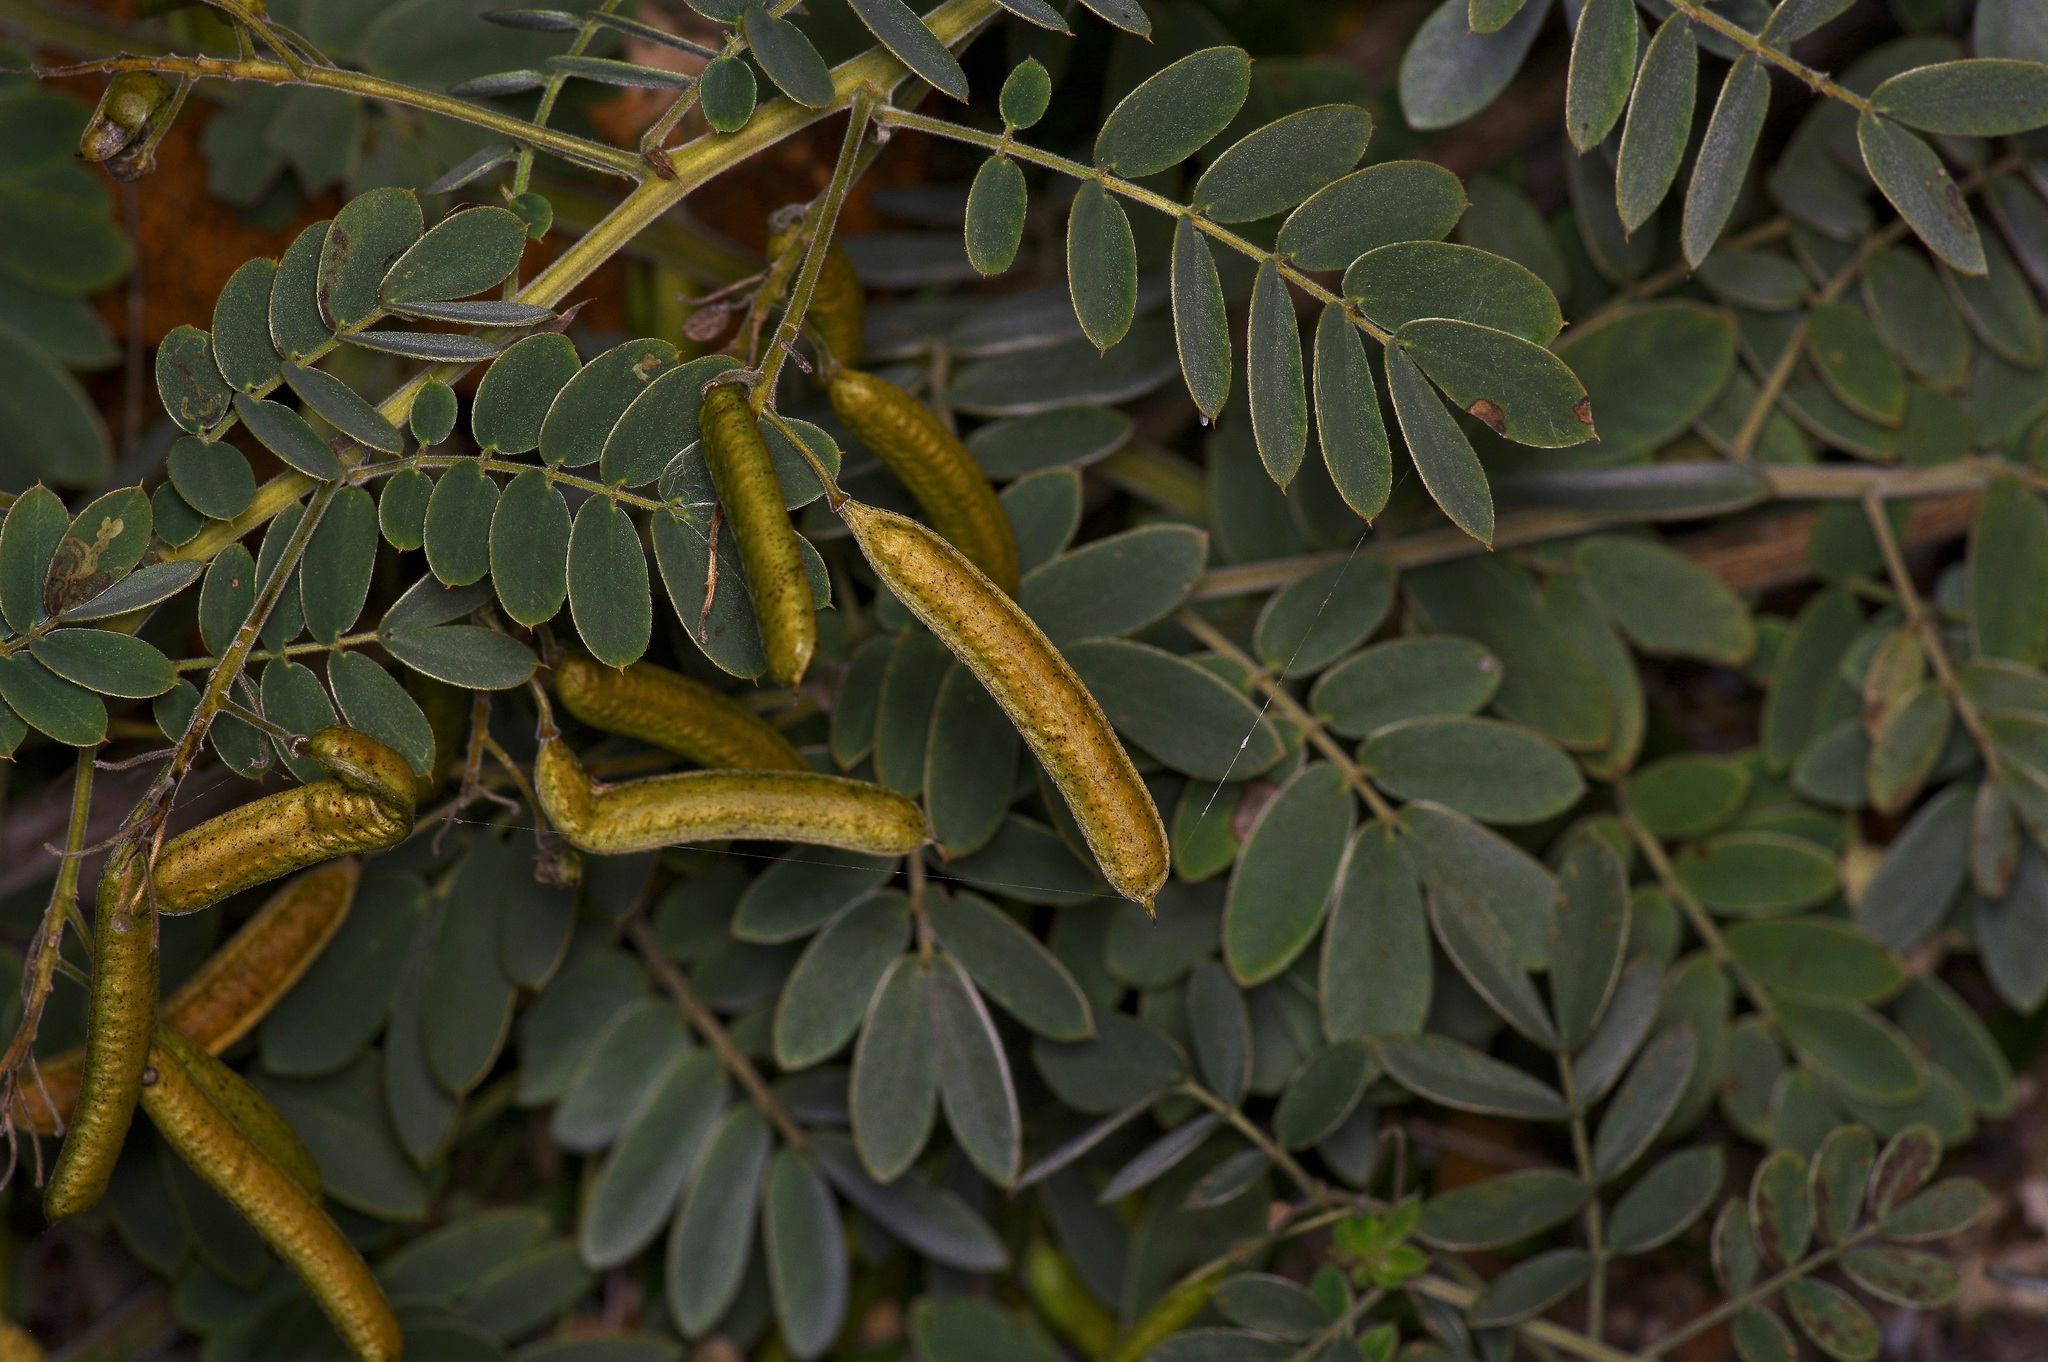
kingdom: Plantae
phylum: Tracheophyta
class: Magnoliopsida
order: Fabales
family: Fabaceae
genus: Senna
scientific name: Senna lindheimeriana
